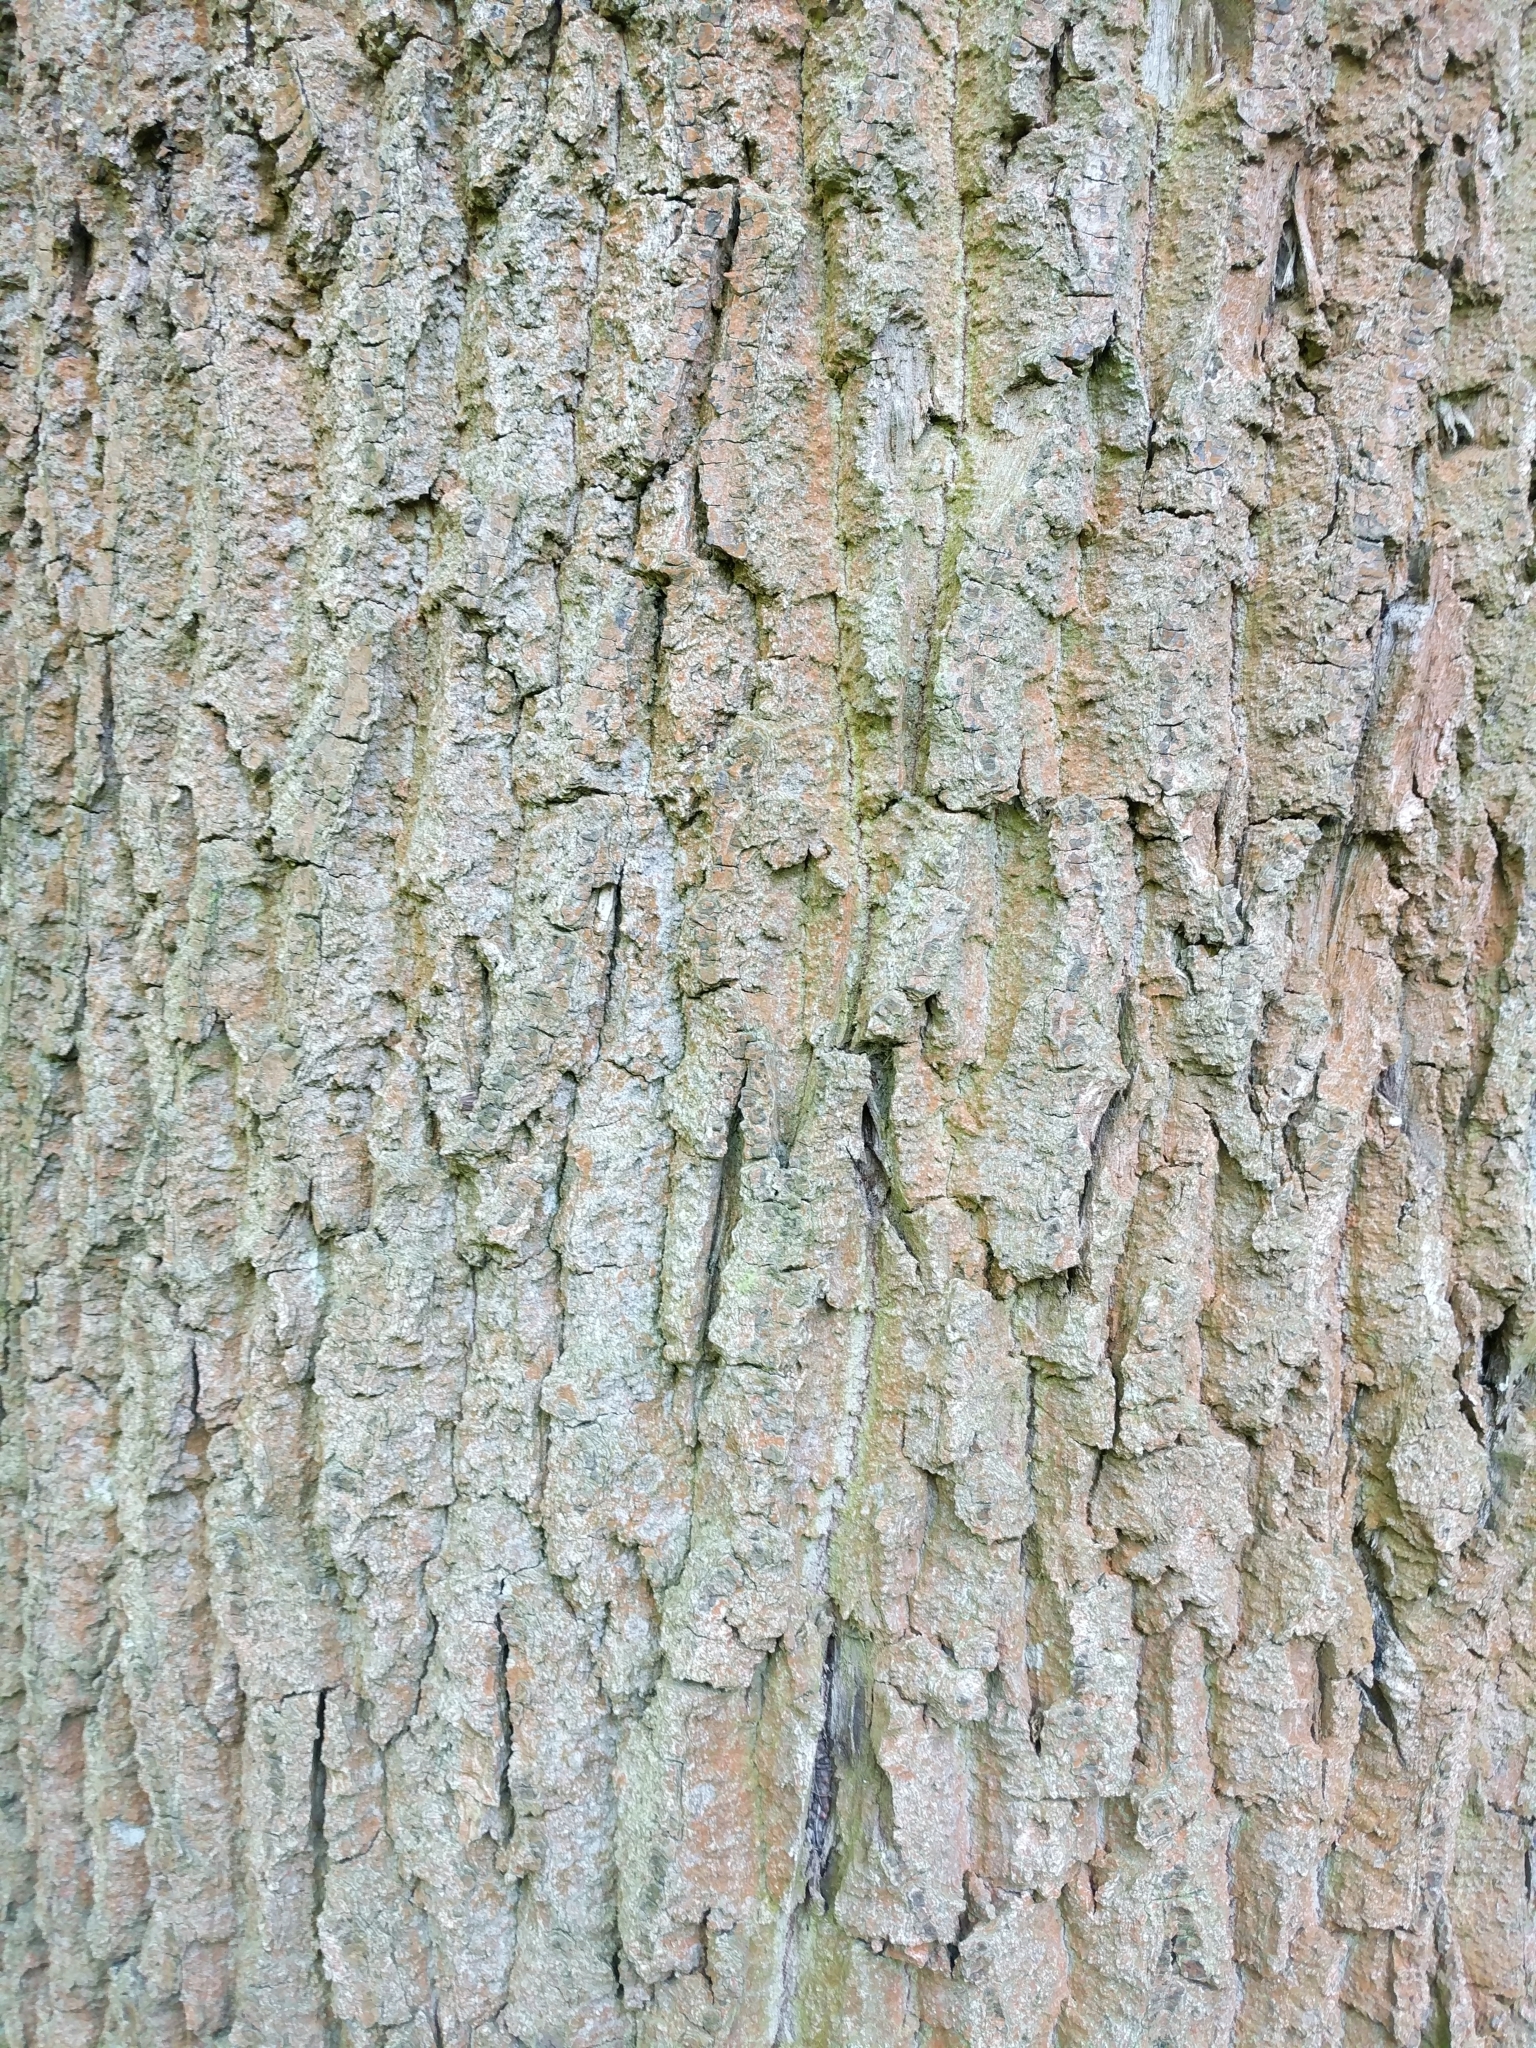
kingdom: Plantae
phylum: Tracheophyta
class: Magnoliopsida
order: Fagales
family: Fagaceae
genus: Quercus
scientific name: Quercus robur
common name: Pedunculate oak
